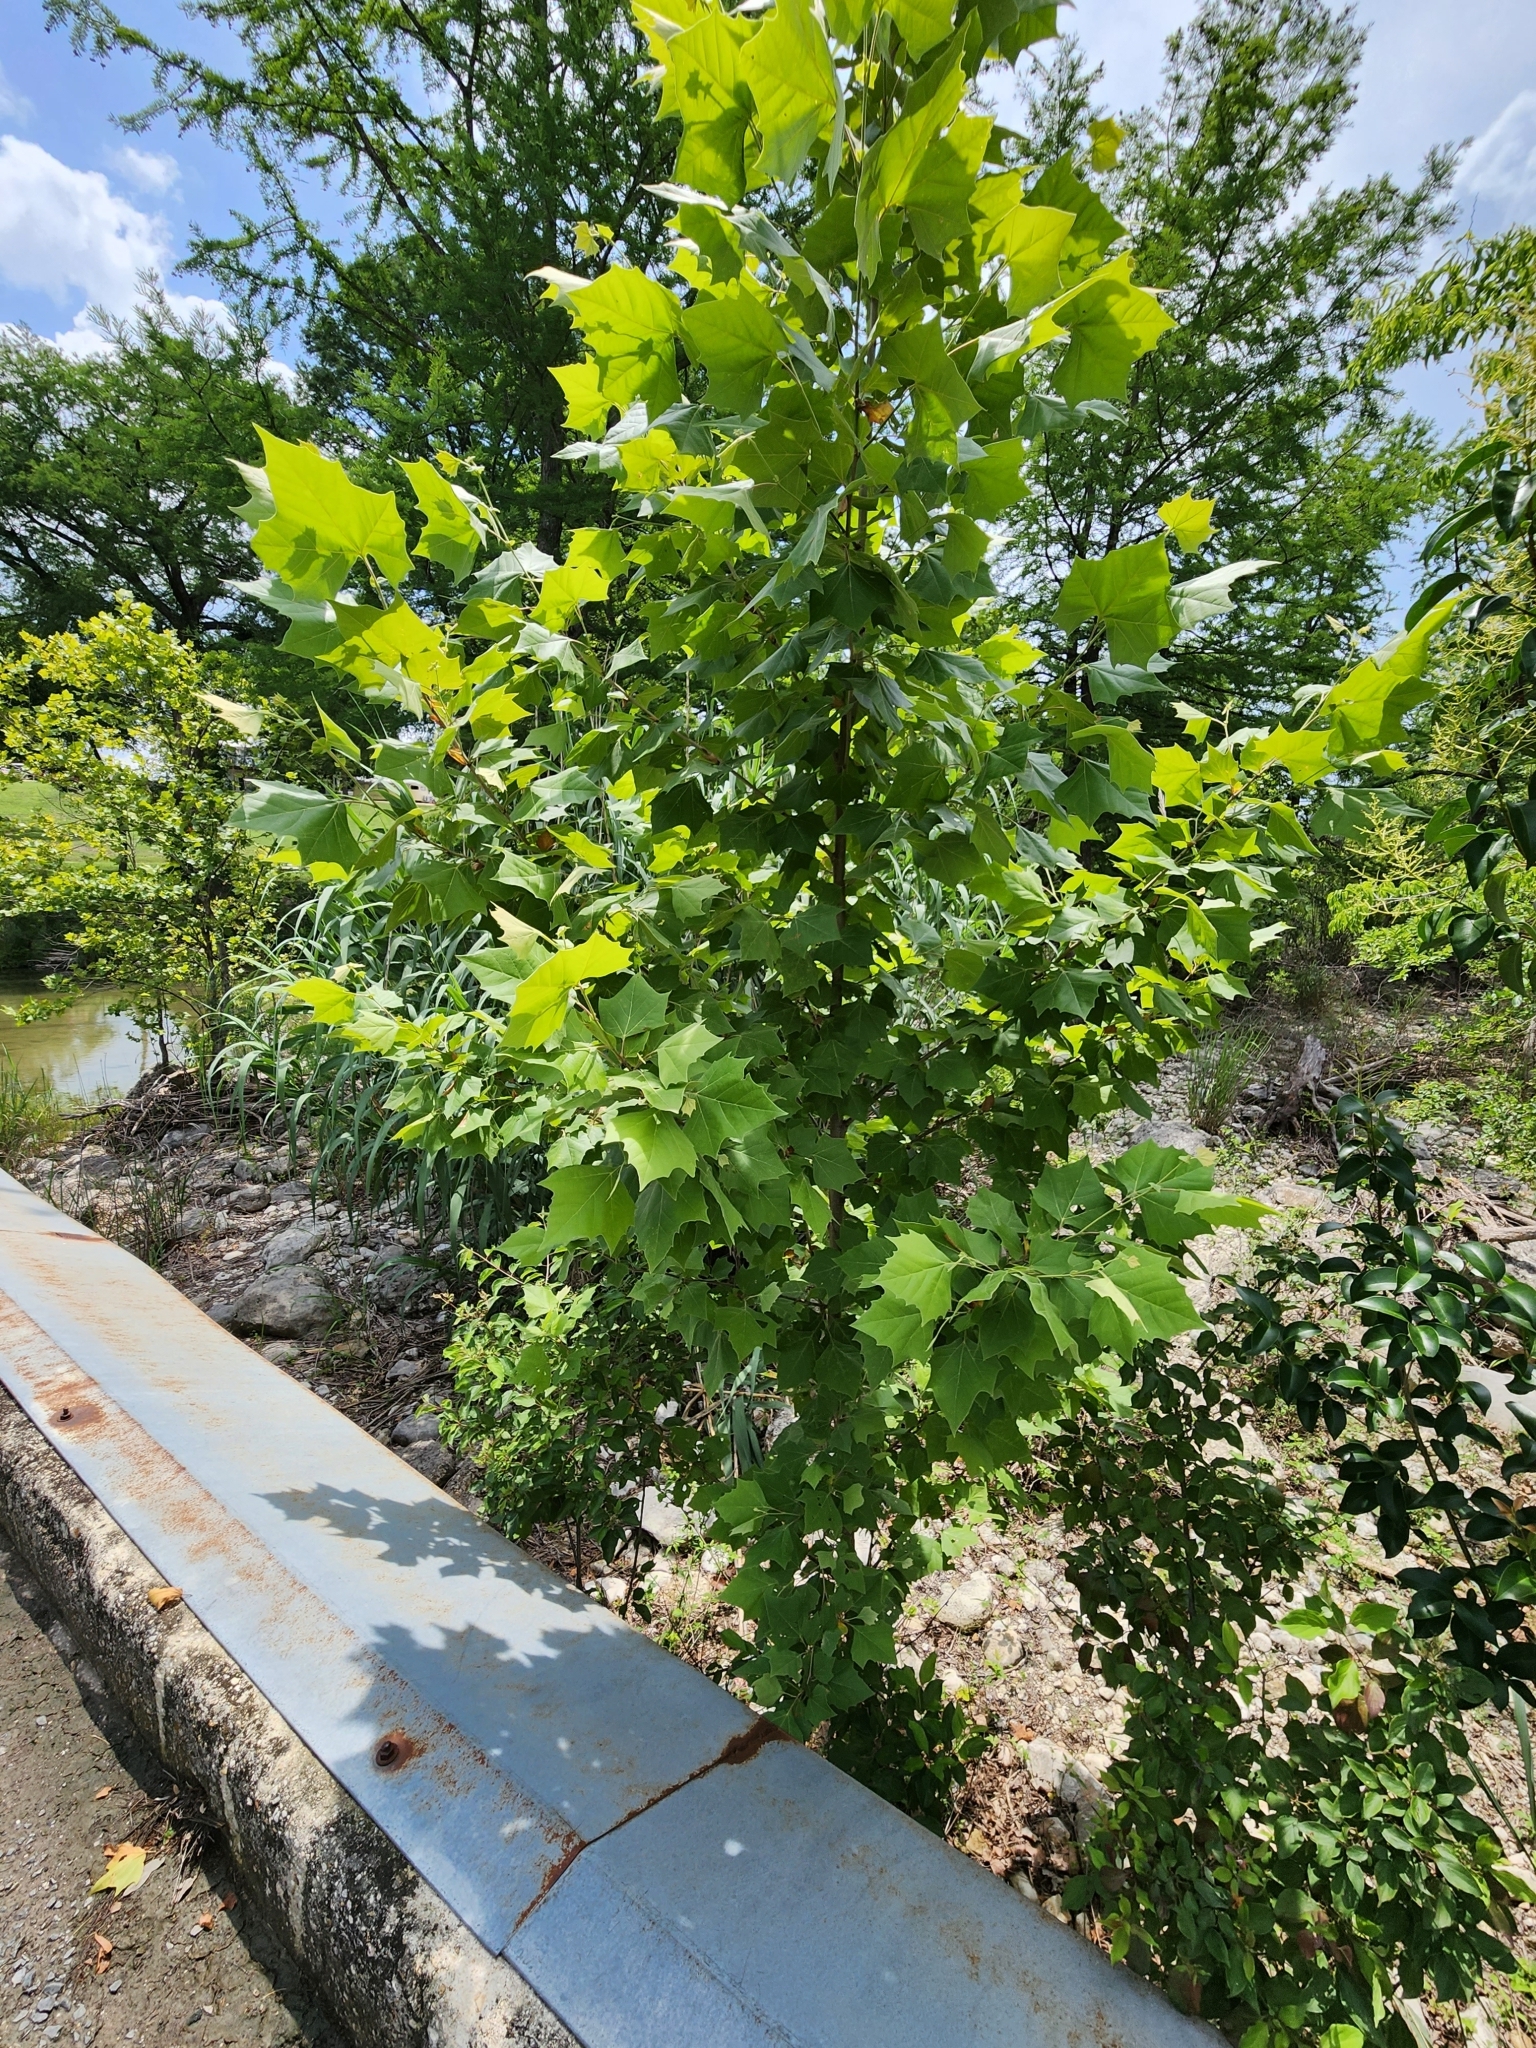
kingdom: Plantae
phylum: Tracheophyta
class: Magnoliopsida
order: Proteales
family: Platanaceae
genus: Platanus
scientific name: Platanus occidentalis
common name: American sycamore
